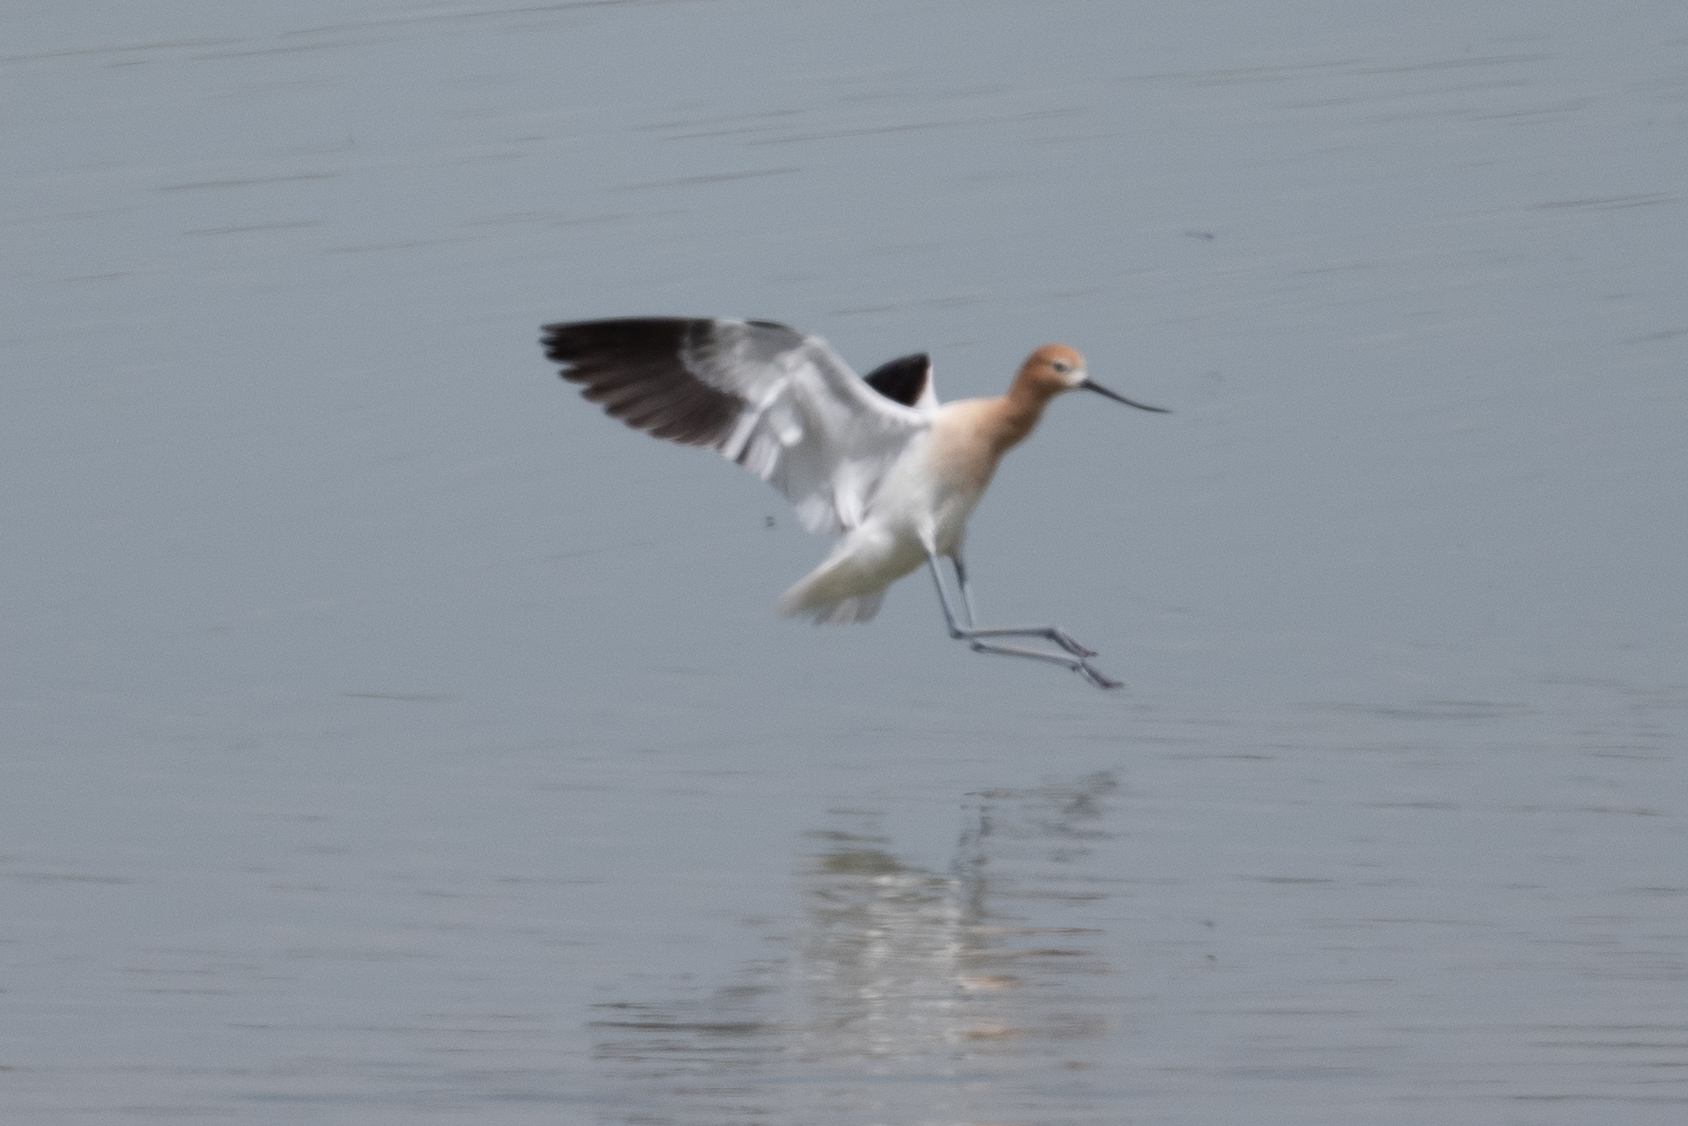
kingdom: Animalia
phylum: Chordata
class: Aves
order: Charadriiformes
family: Recurvirostridae
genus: Recurvirostra
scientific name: Recurvirostra americana
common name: American avocet
